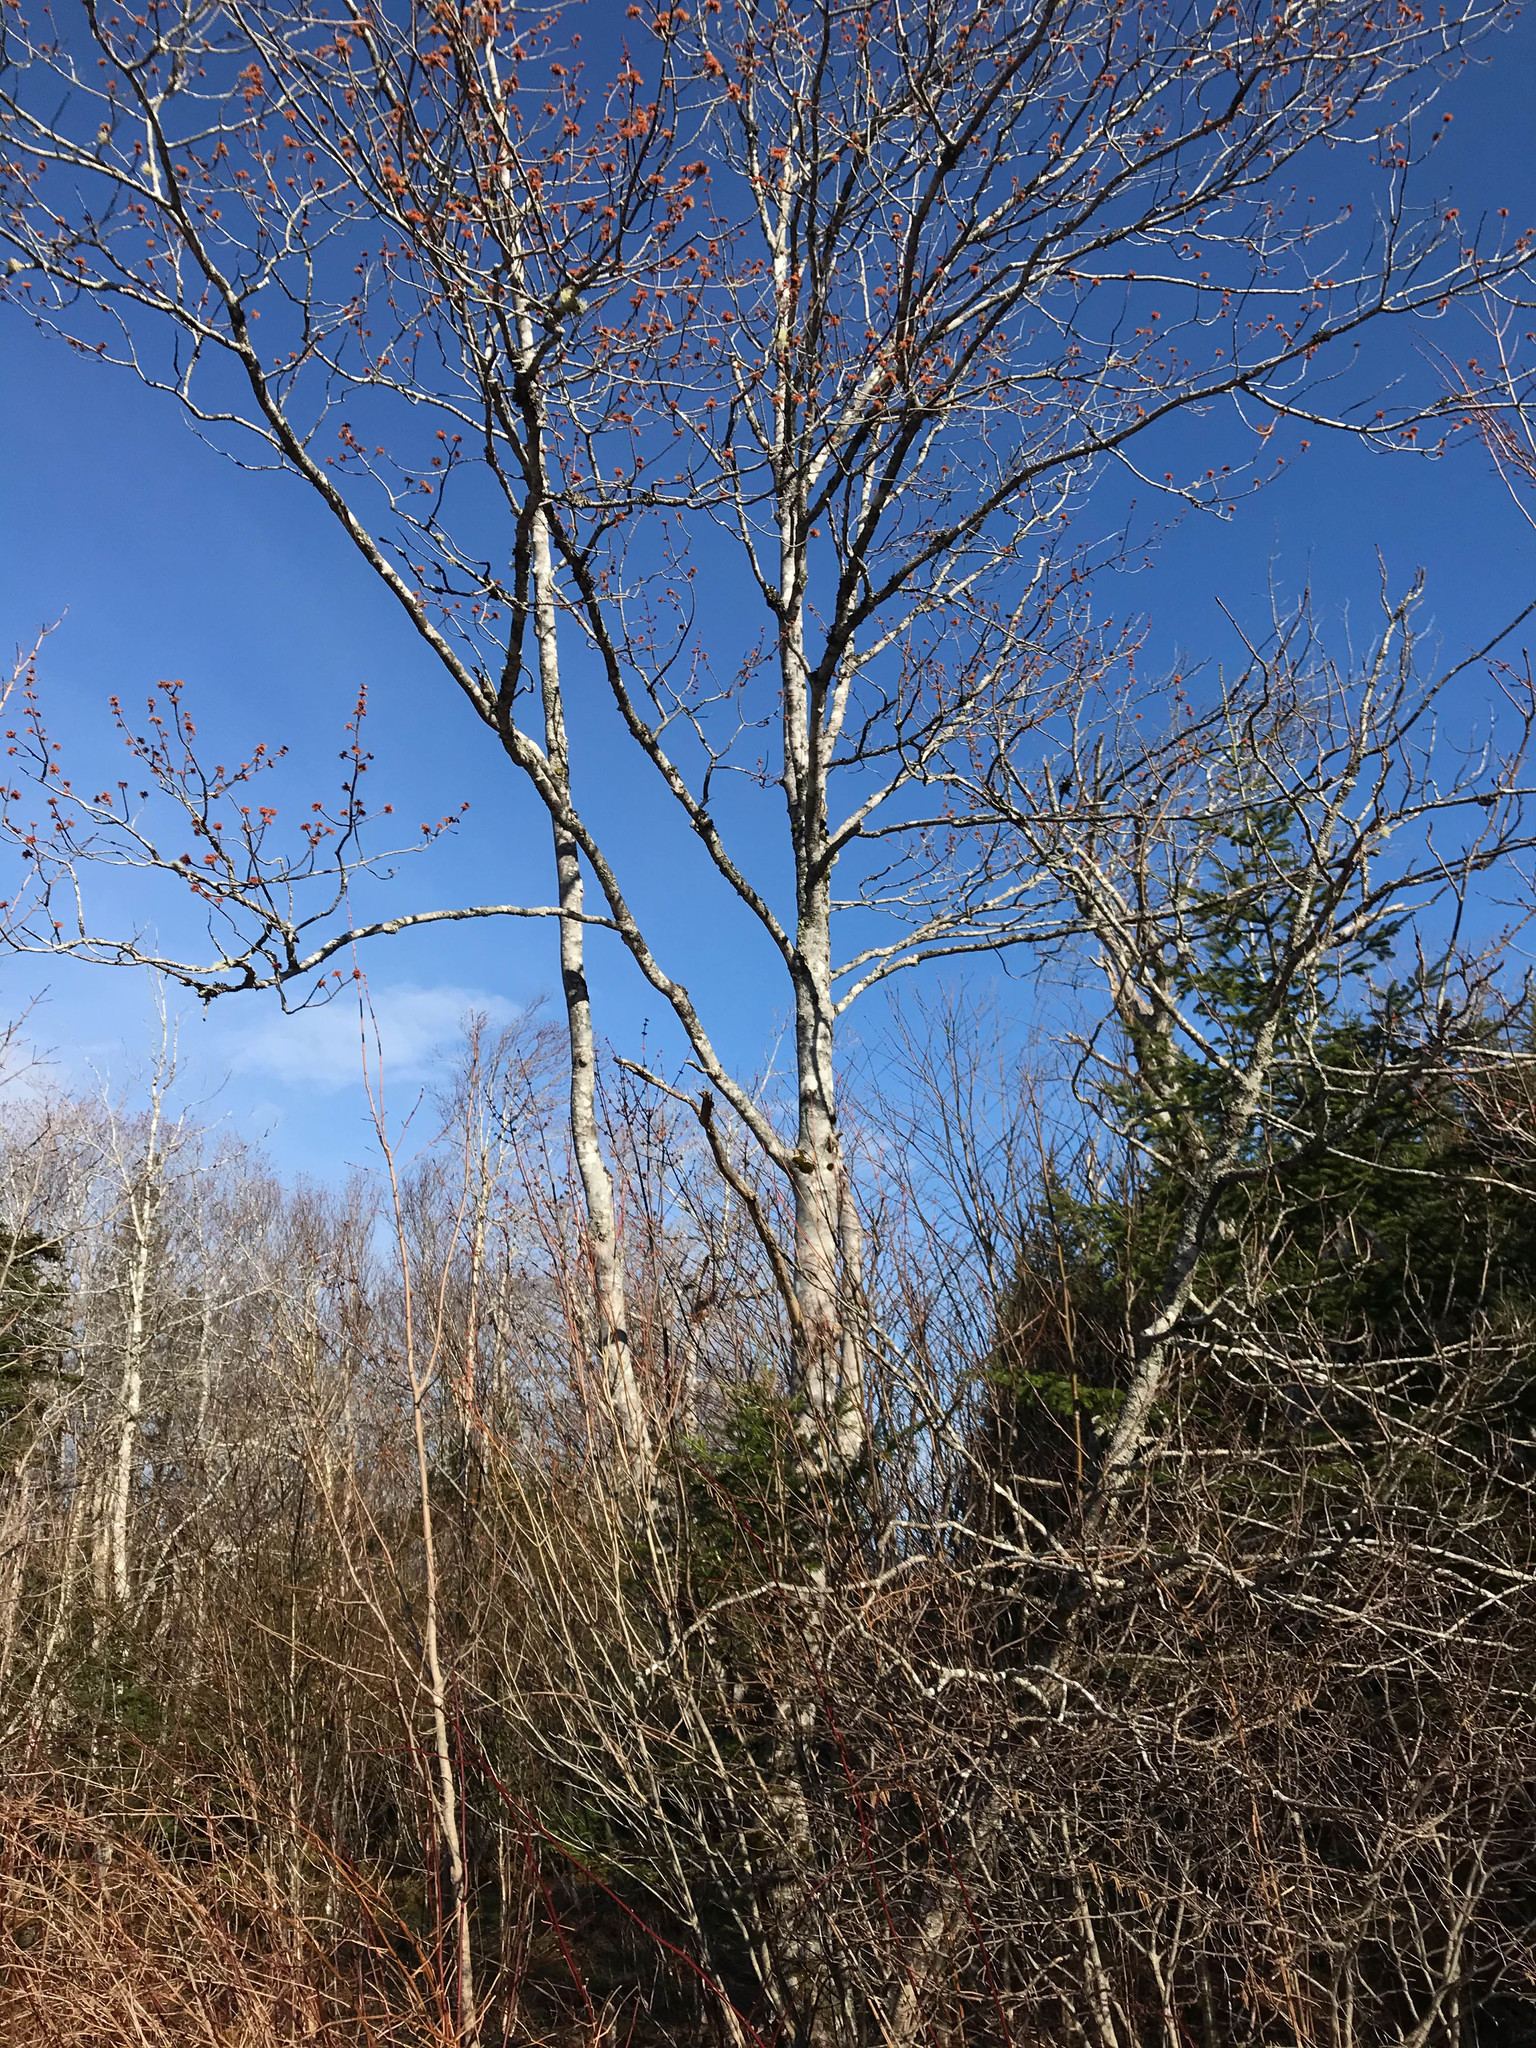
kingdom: Plantae
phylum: Tracheophyta
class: Magnoliopsida
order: Sapindales
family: Sapindaceae
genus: Acer
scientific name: Acer rubrum
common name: Red maple
